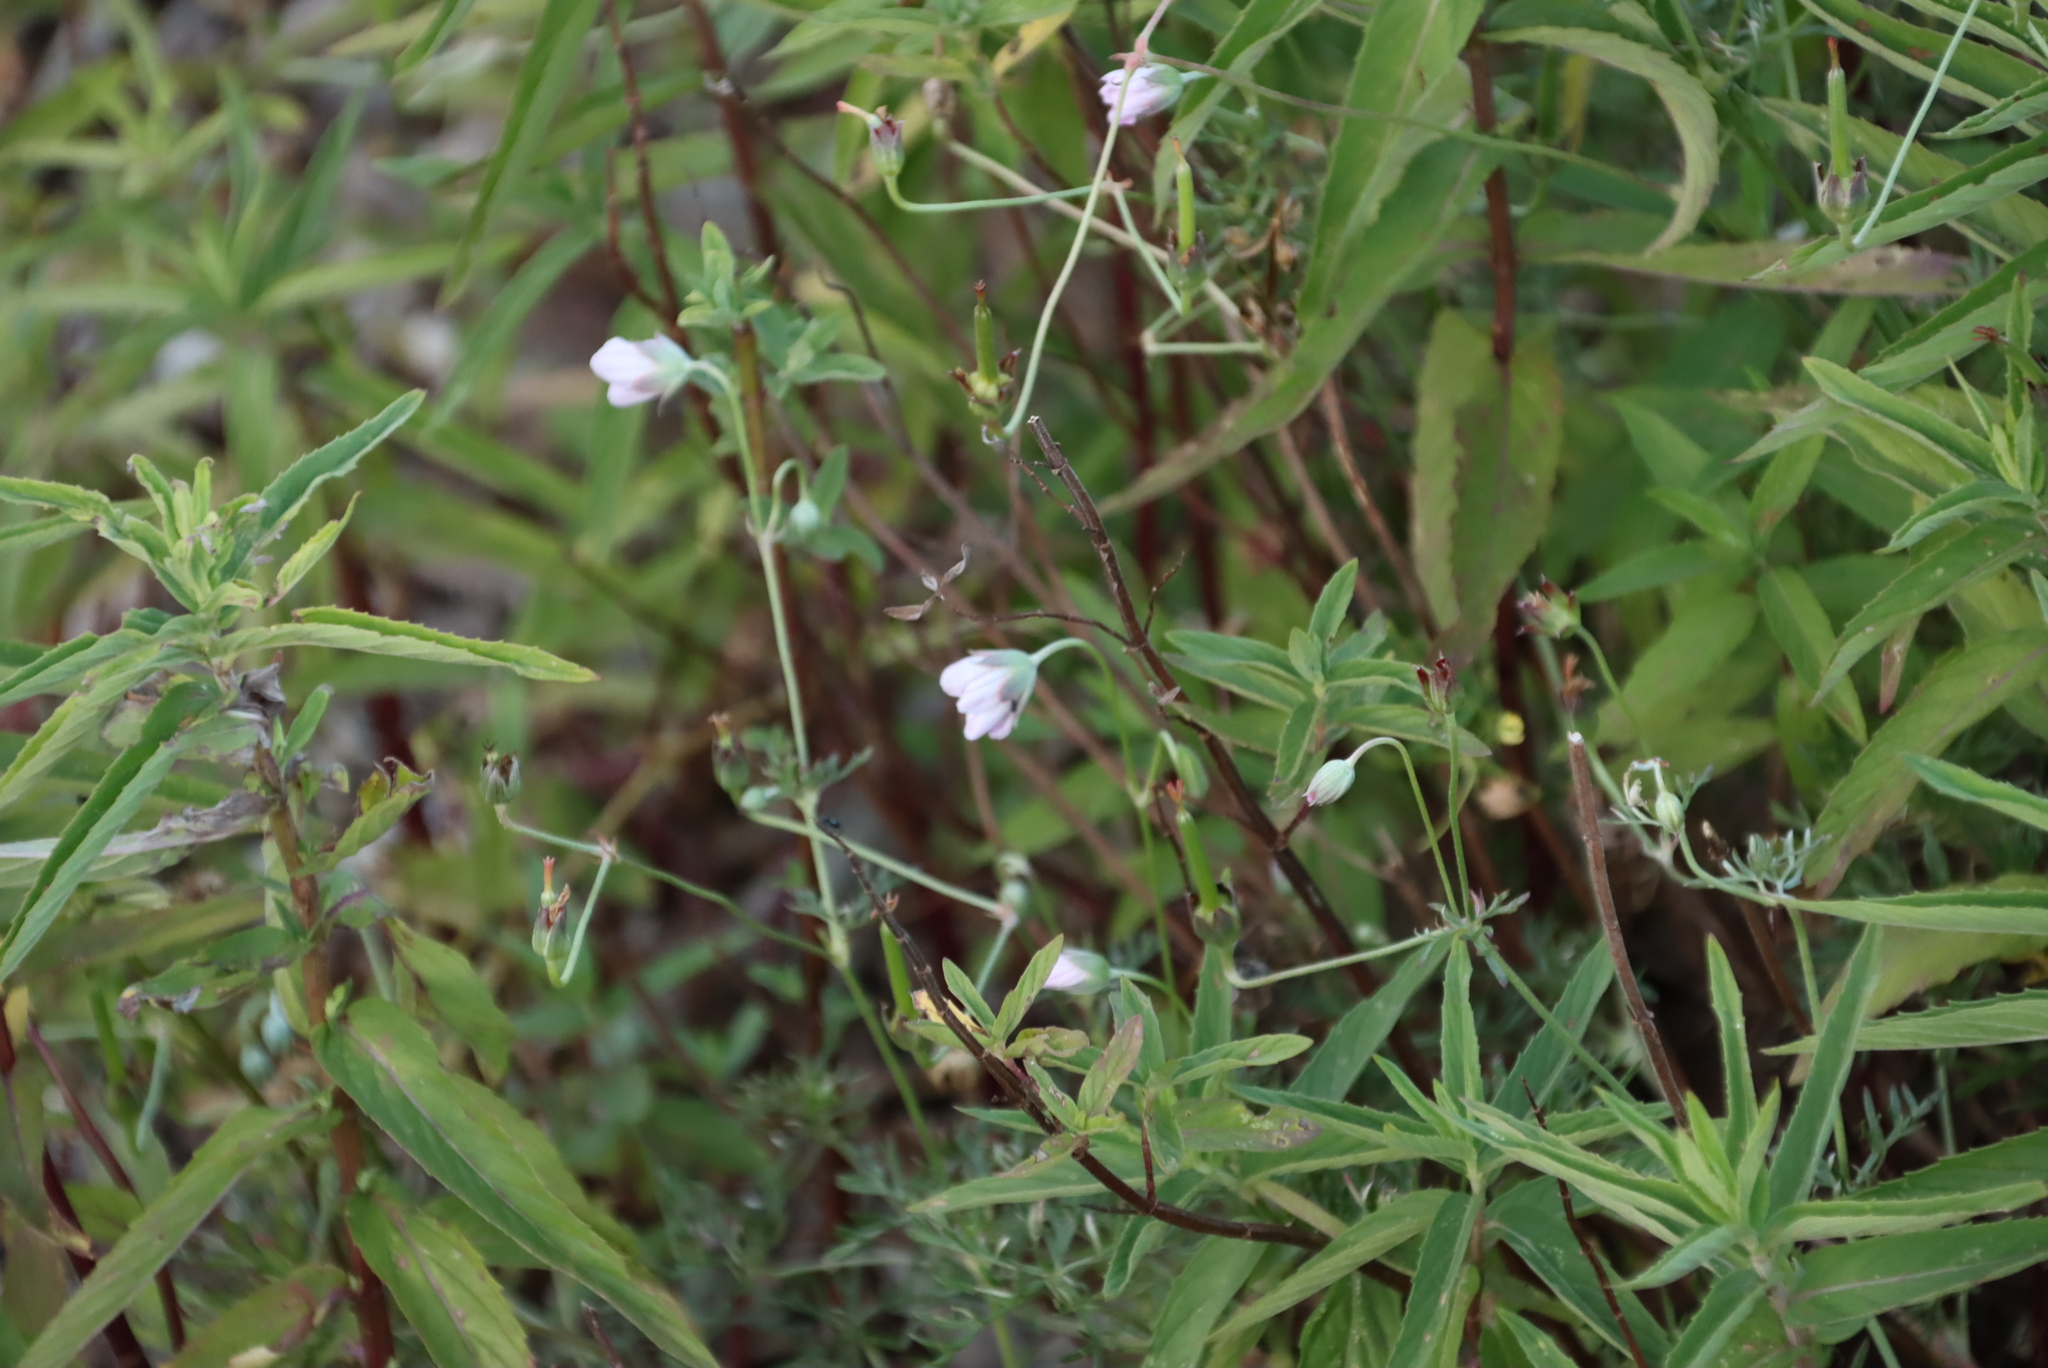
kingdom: Plantae
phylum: Tracheophyta
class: Magnoliopsida
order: Geraniales
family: Geraniaceae
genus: Geranium
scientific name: Geranium incanum
